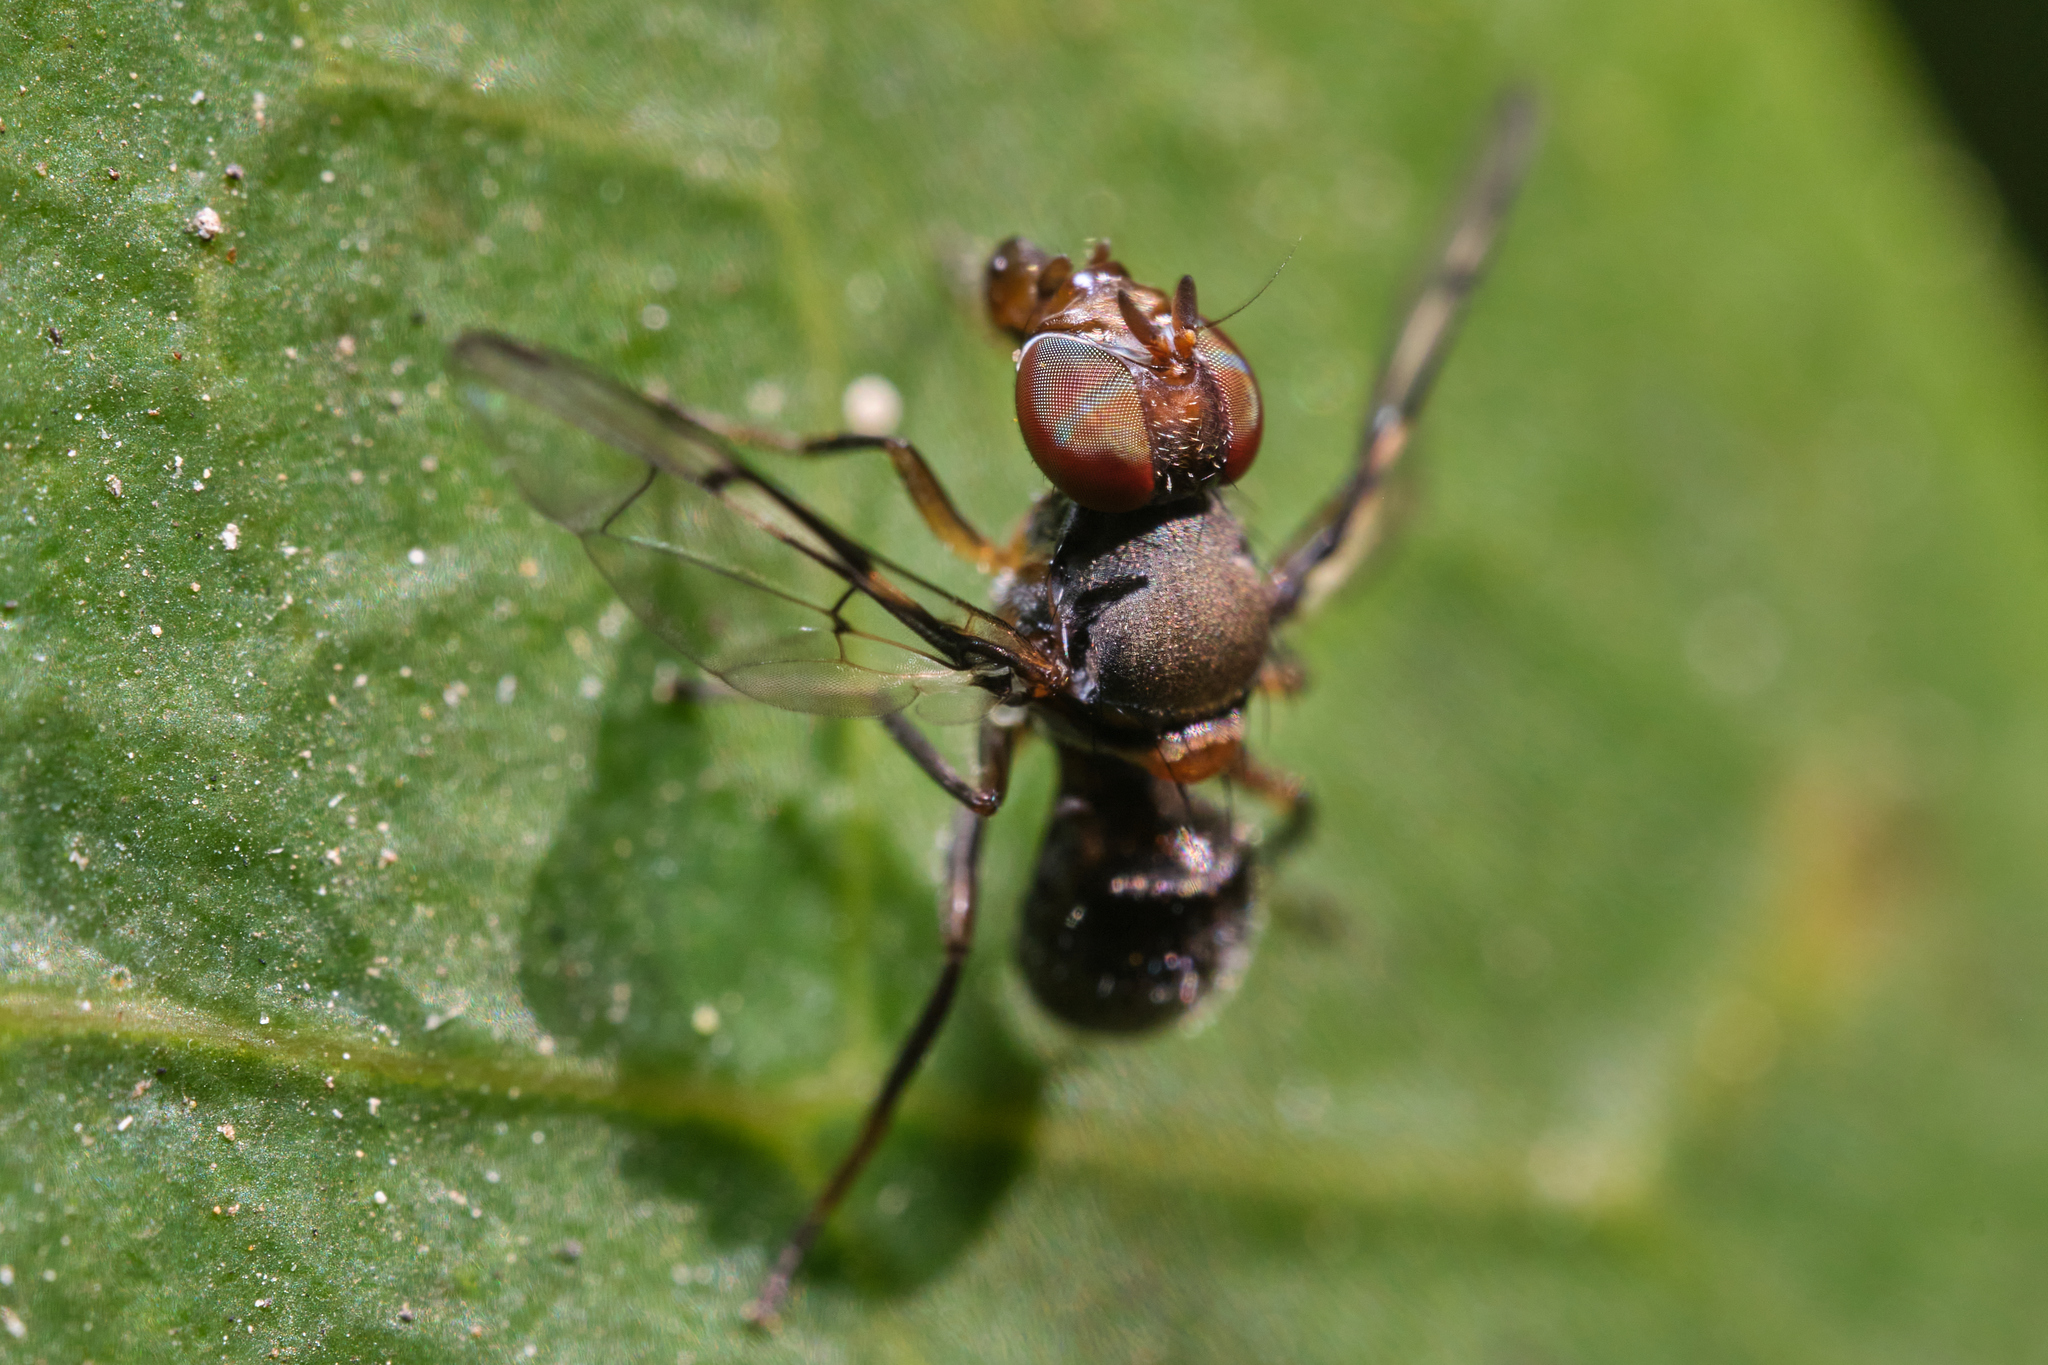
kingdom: Animalia
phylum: Arthropoda
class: Insecta
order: Diptera
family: Platystomatidae
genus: Pogonortalis
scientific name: Pogonortalis doclea
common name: Boatman fly
